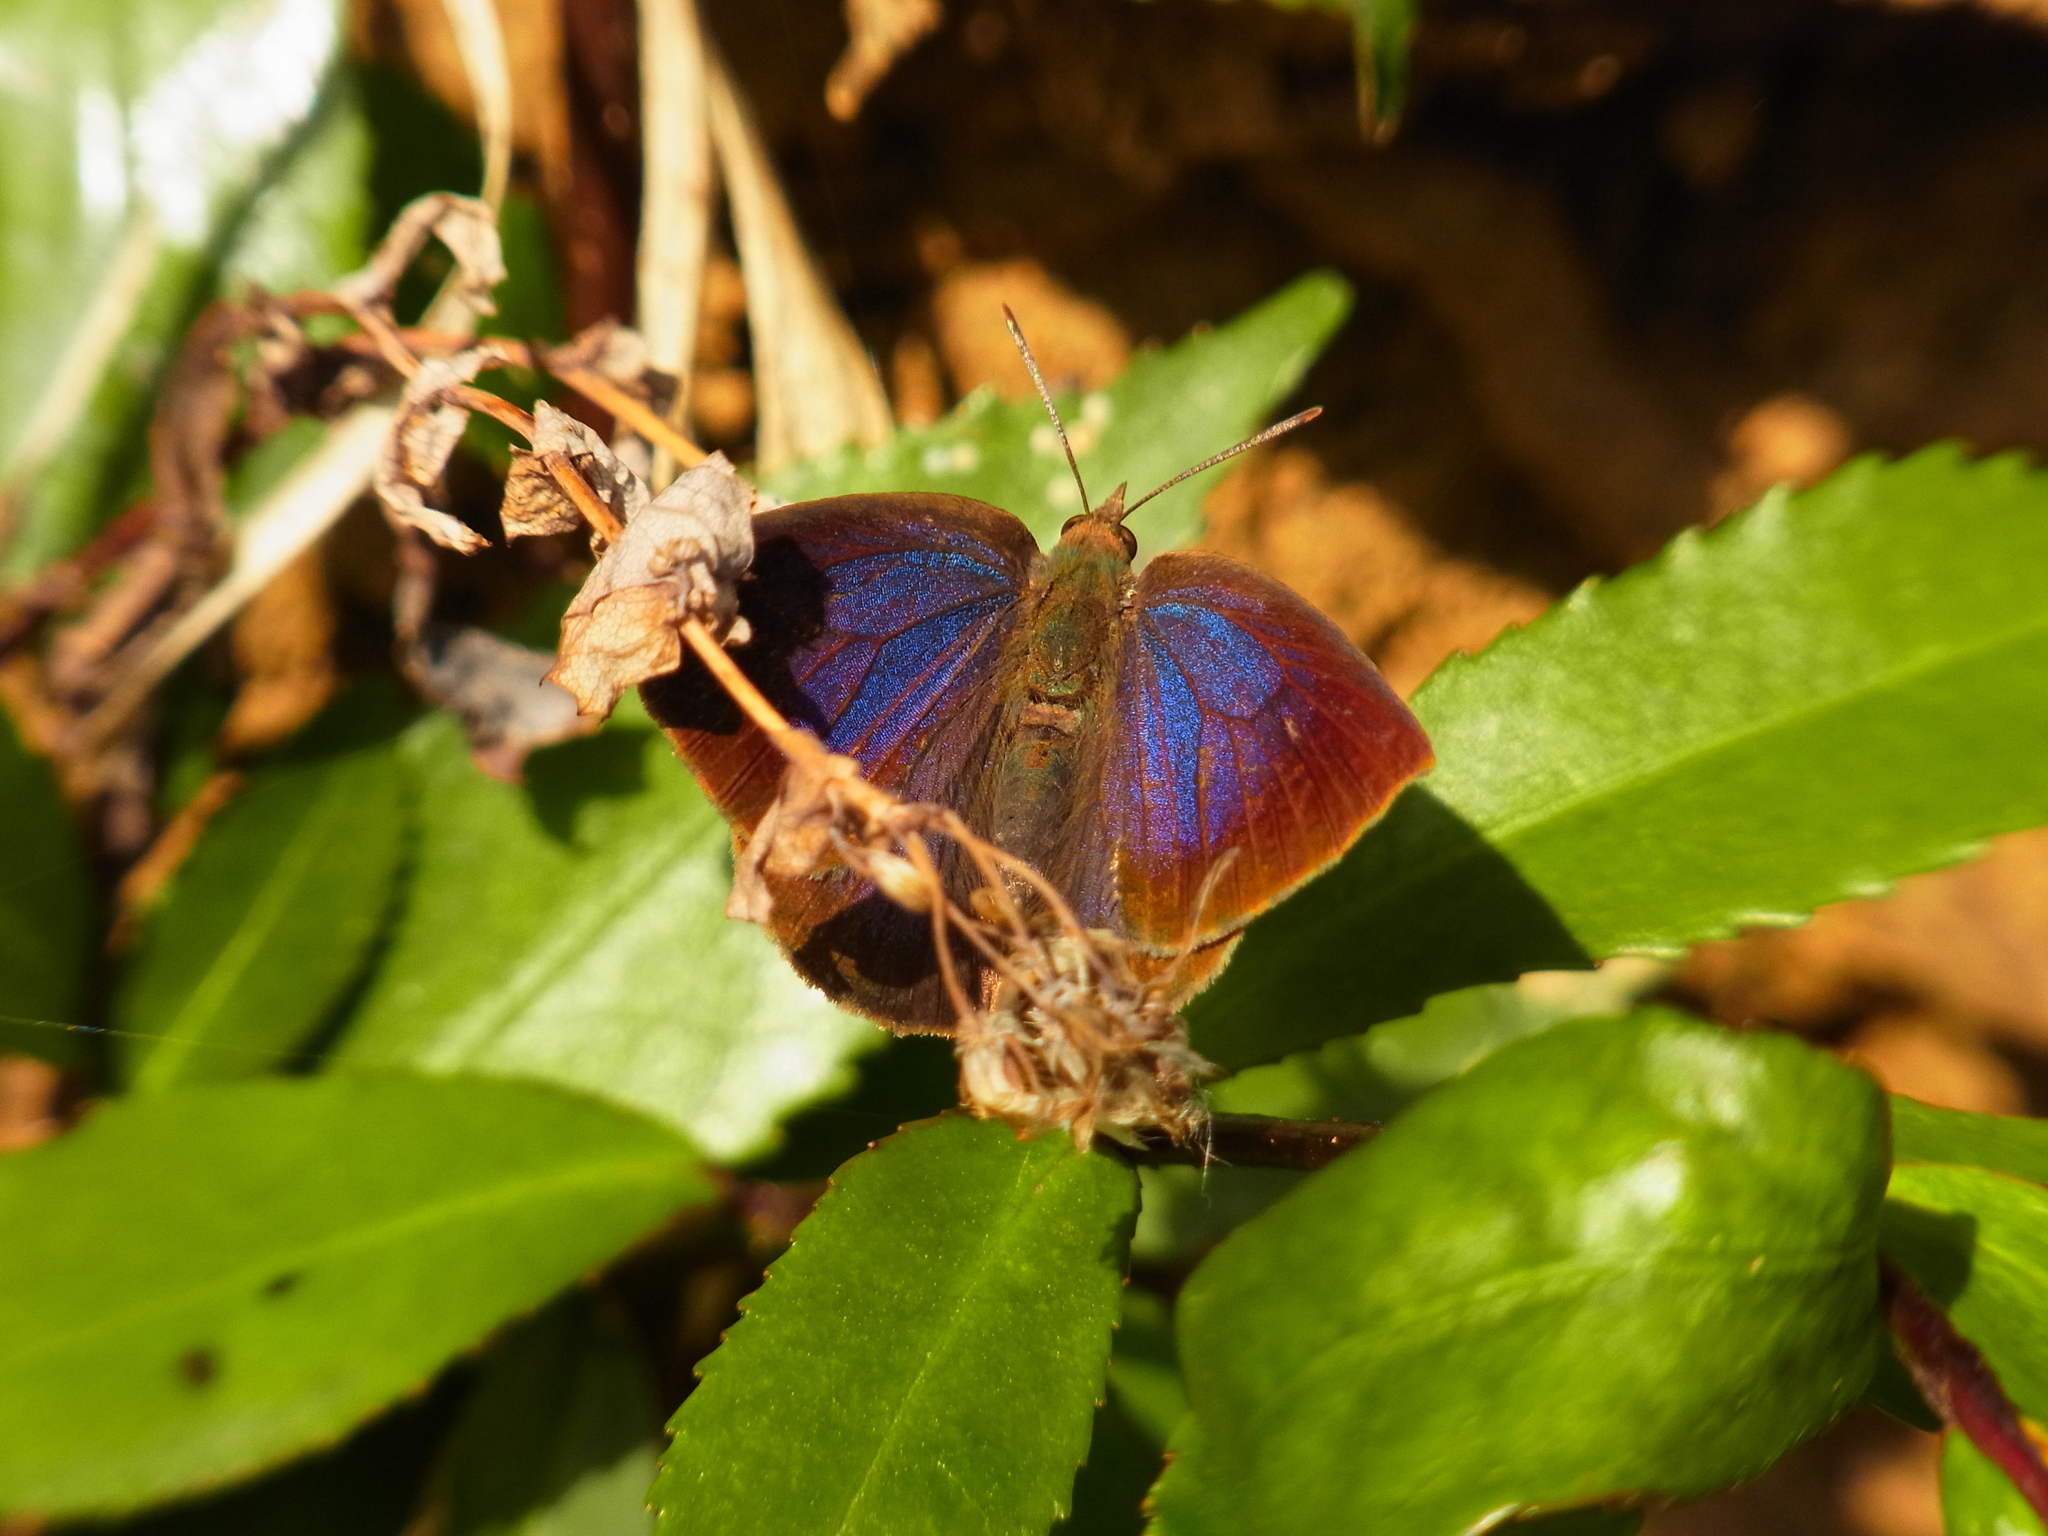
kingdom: Animalia
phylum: Arthropoda
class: Insecta
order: Lepidoptera
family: Lycaenidae
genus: Arhopala
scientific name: Arhopala japonica
